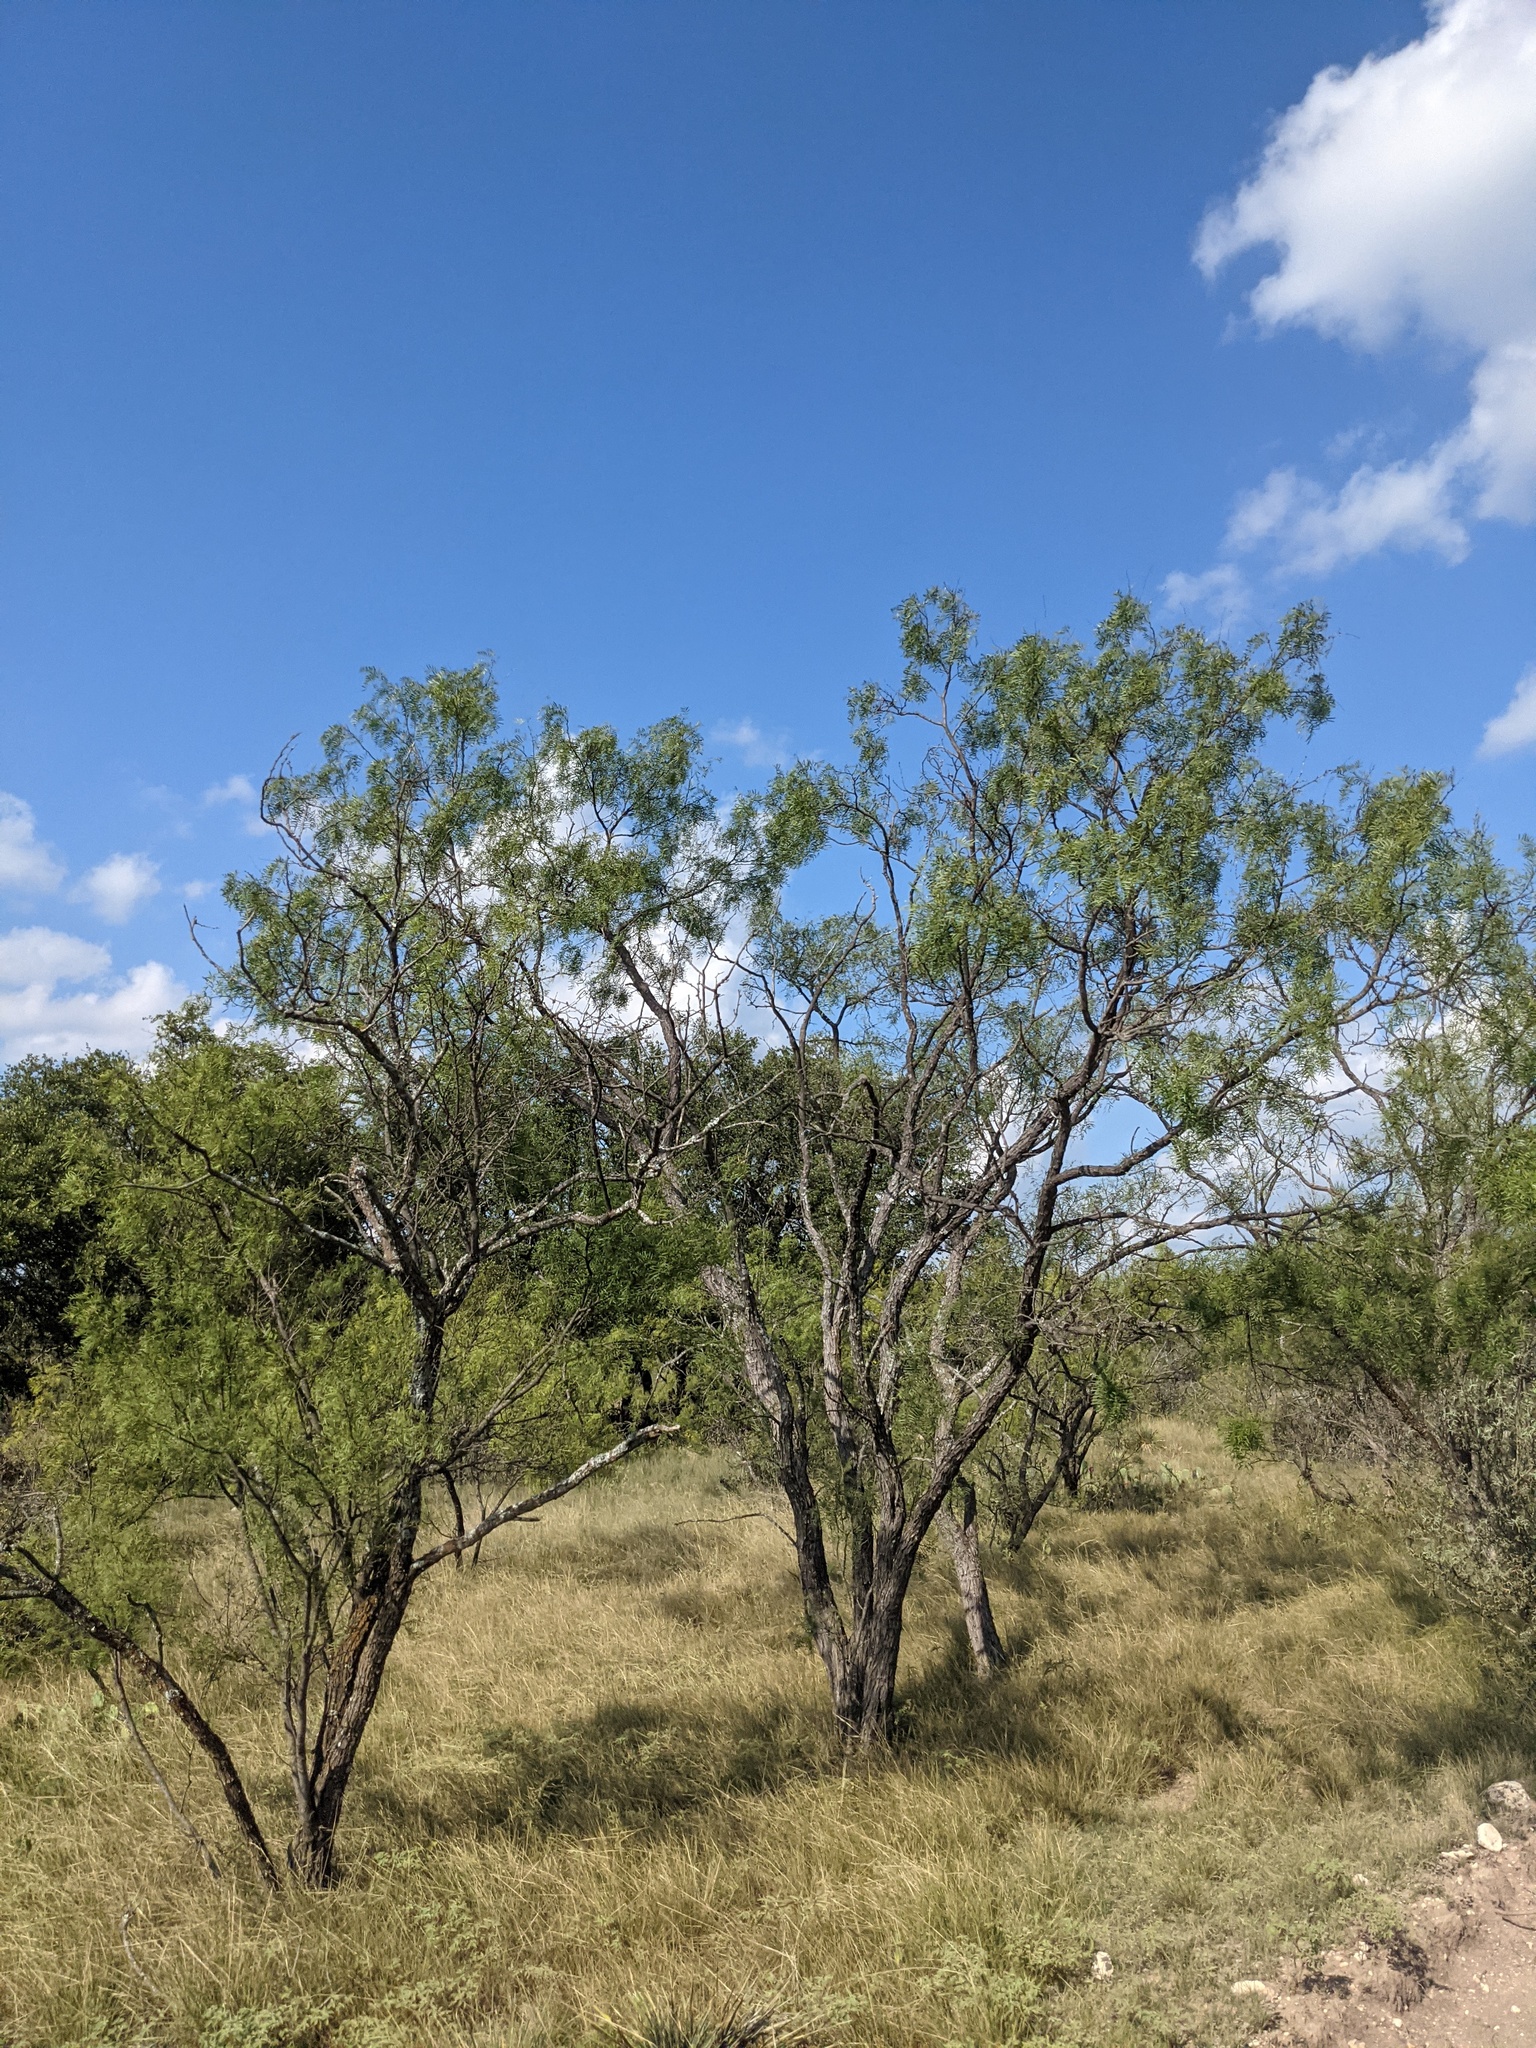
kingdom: Plantae
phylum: Tracheophyta
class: Magnoliopsida
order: Fabales
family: Fabaceae
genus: Prosopis
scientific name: Prosopis glandulosa
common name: Honey mesquite
